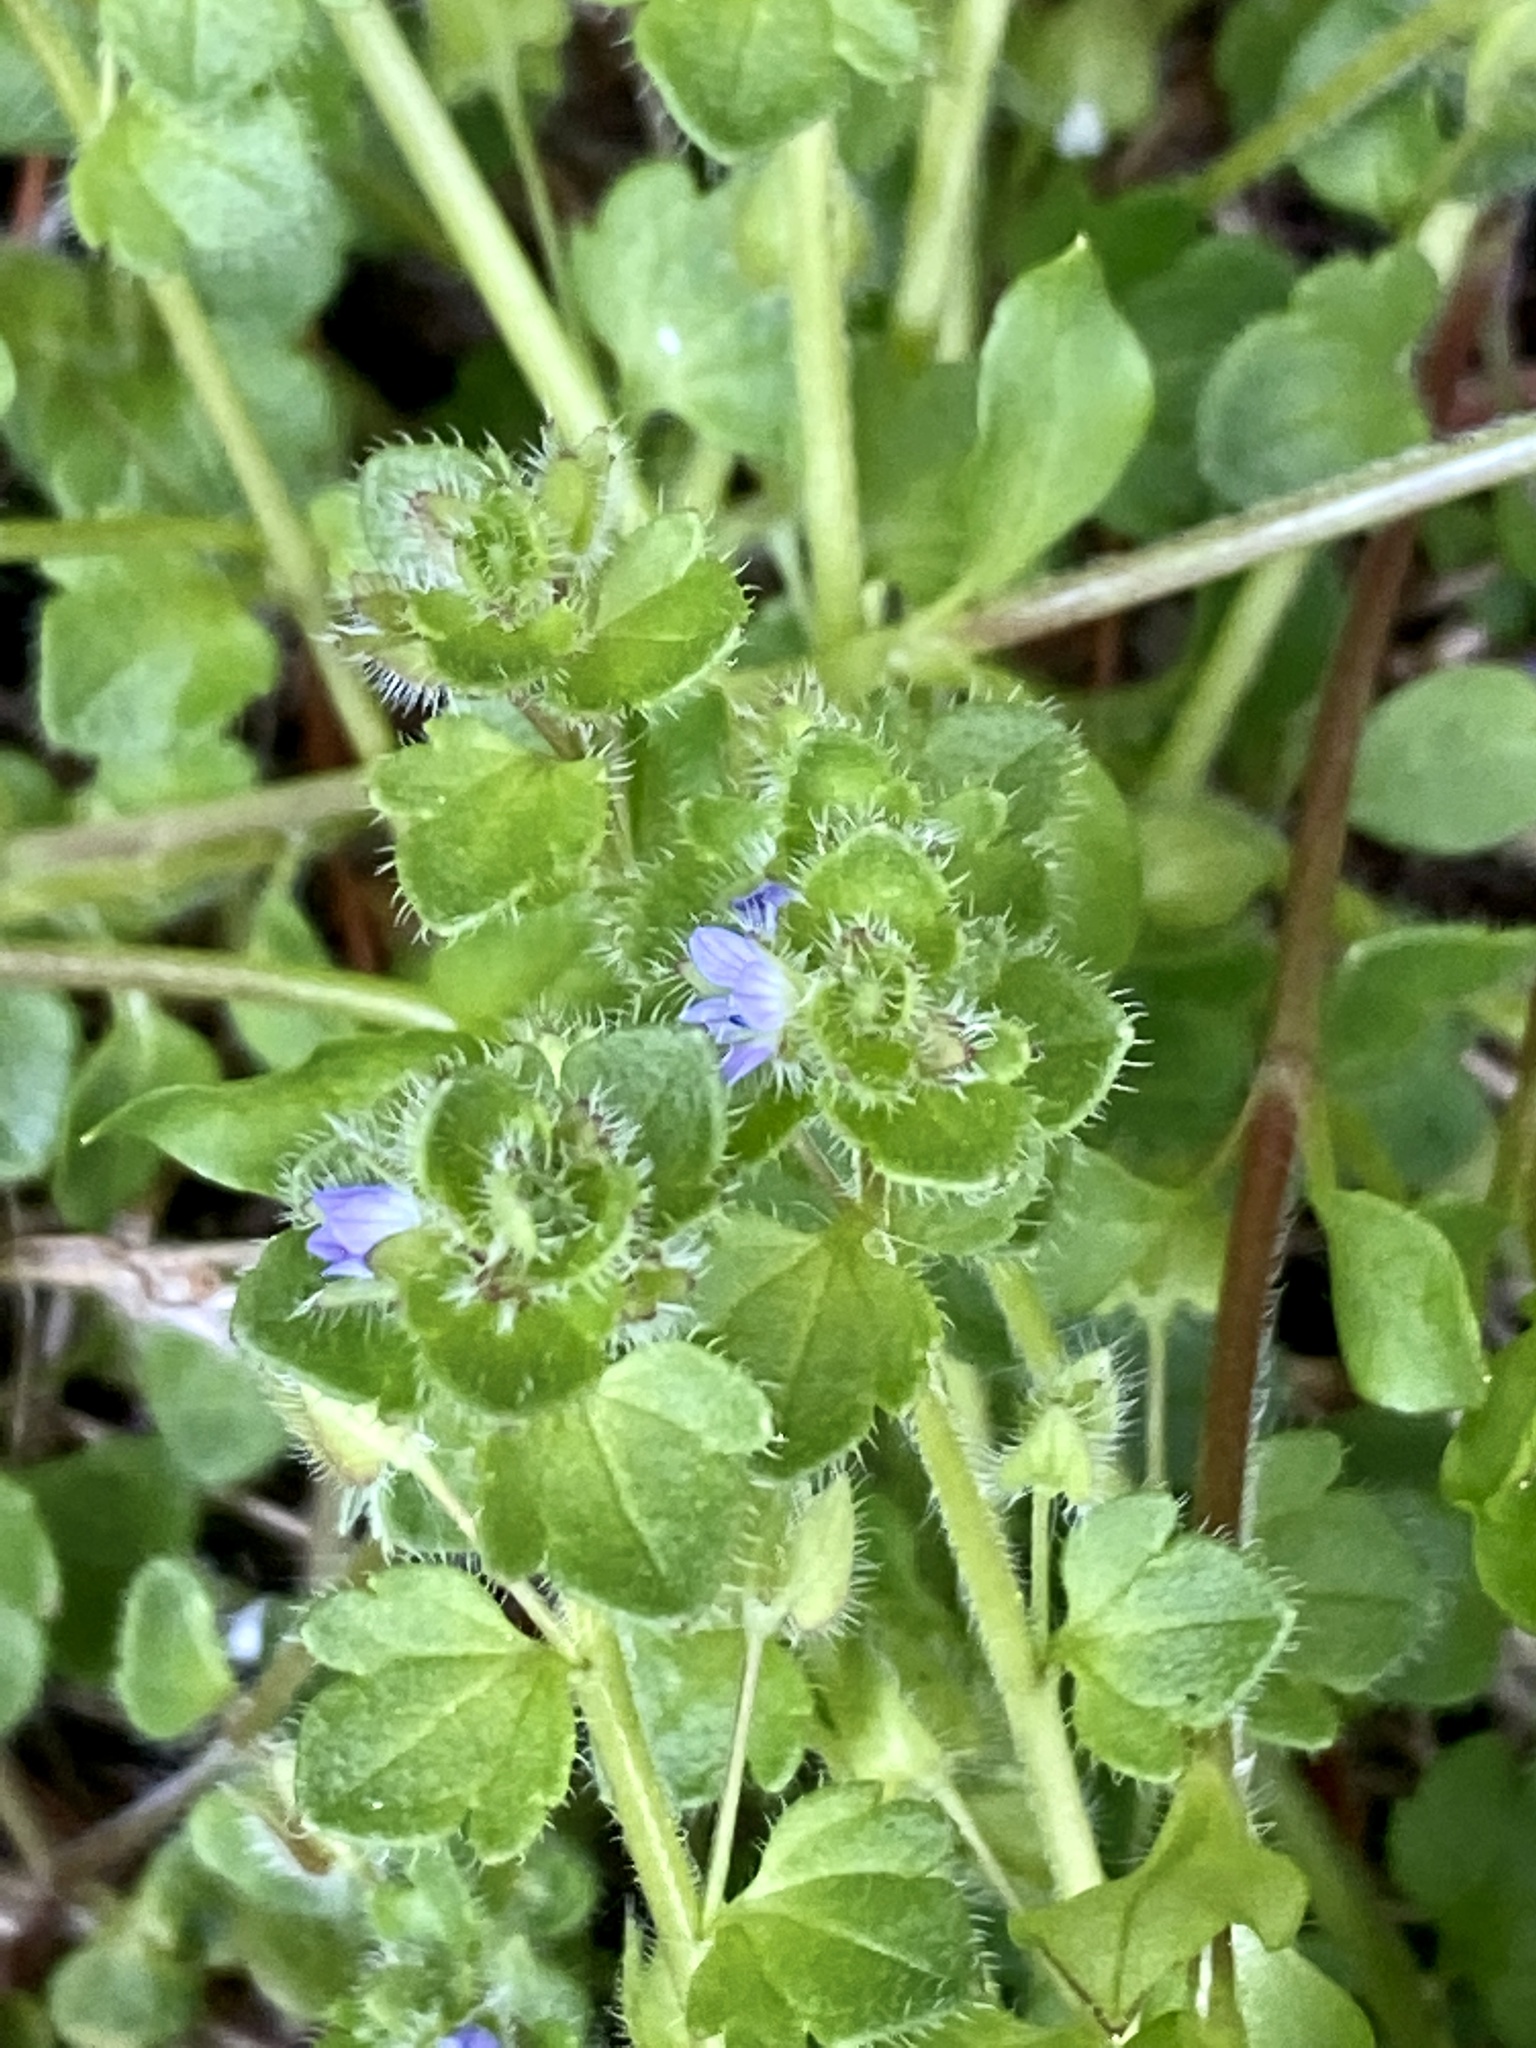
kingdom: Plantae
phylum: Tracheophyta
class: Magnoliopsida
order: Lamiales
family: Plantaginaceae
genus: Veronica
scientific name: Veronica hederifolia
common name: Ivy-leaved speedwell
